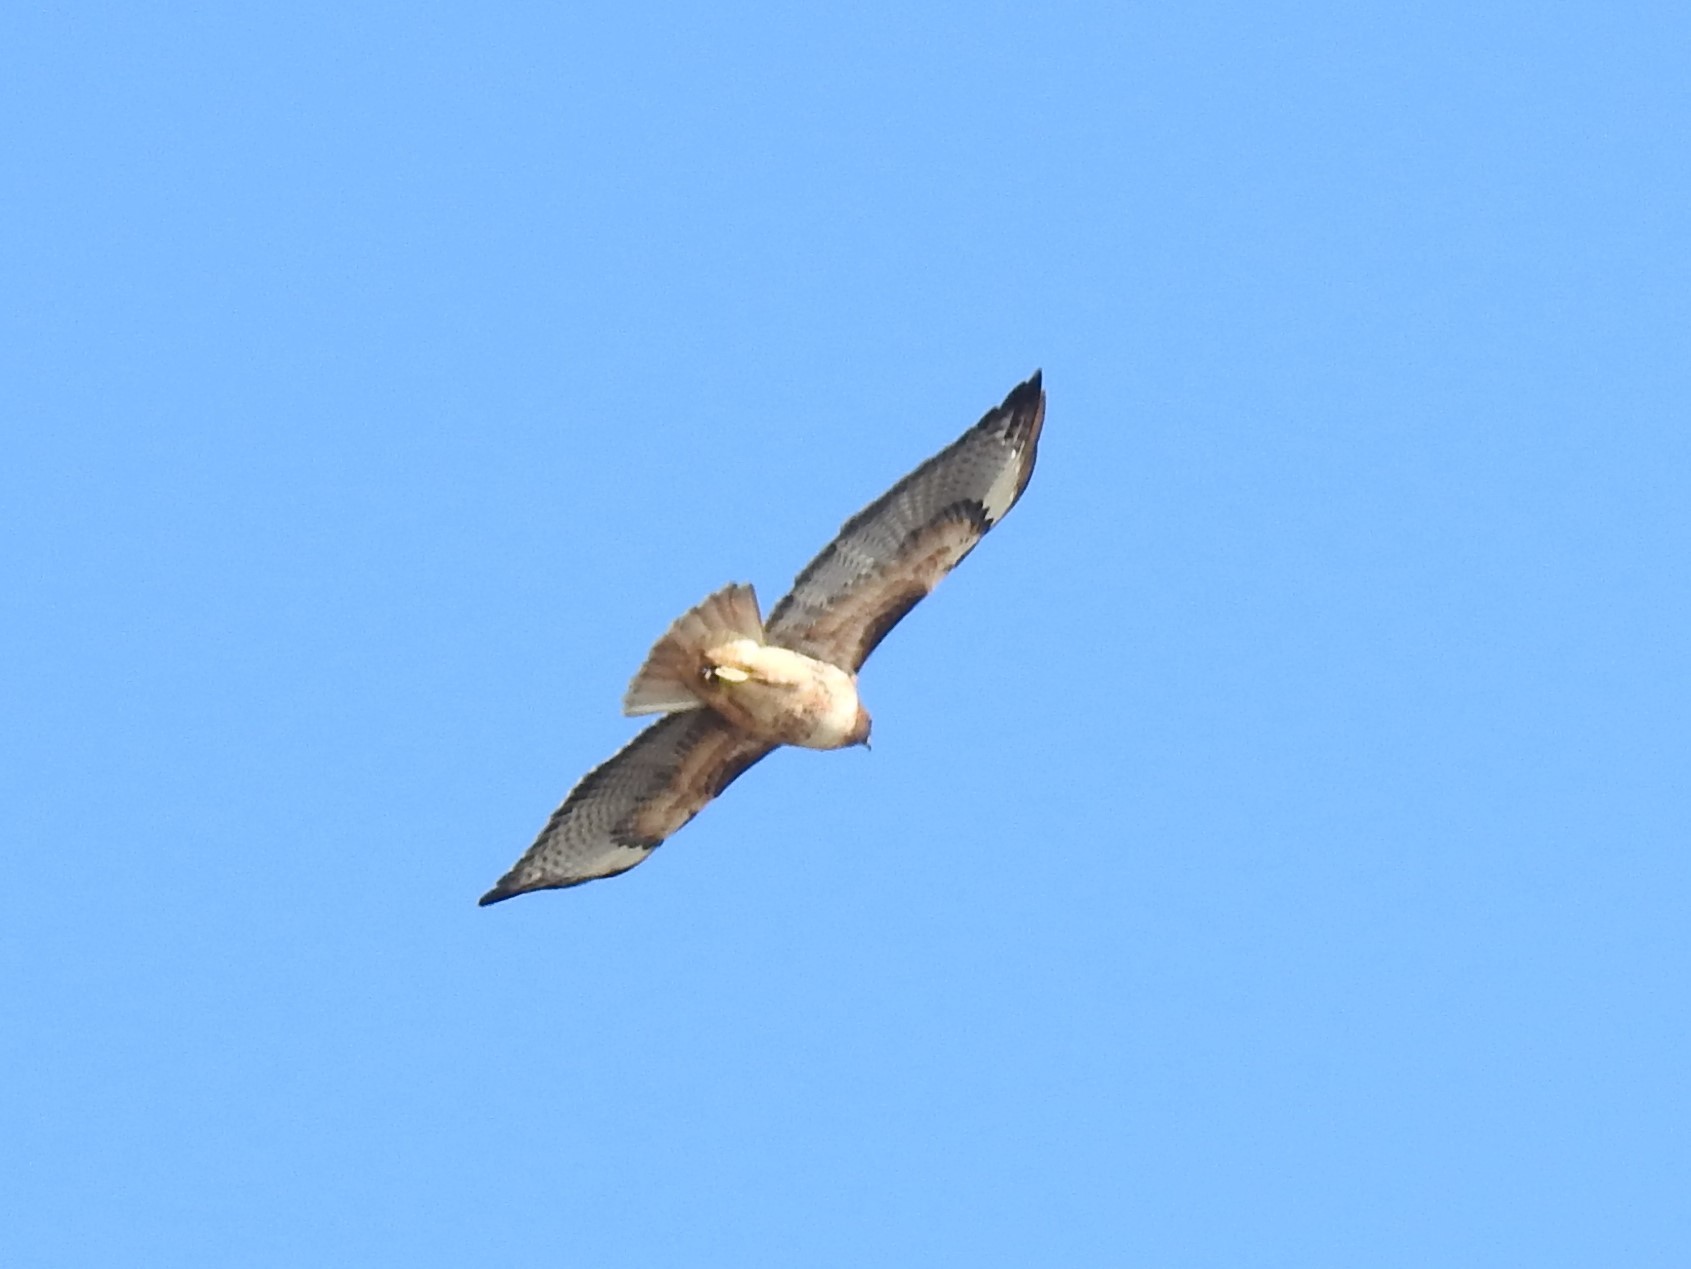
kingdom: Animalia
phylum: Chordata
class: Aves
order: Accipitriformes
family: Accipitridae
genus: Buteo
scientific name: Buteo jamaicensis
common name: Red-tailed hawk
